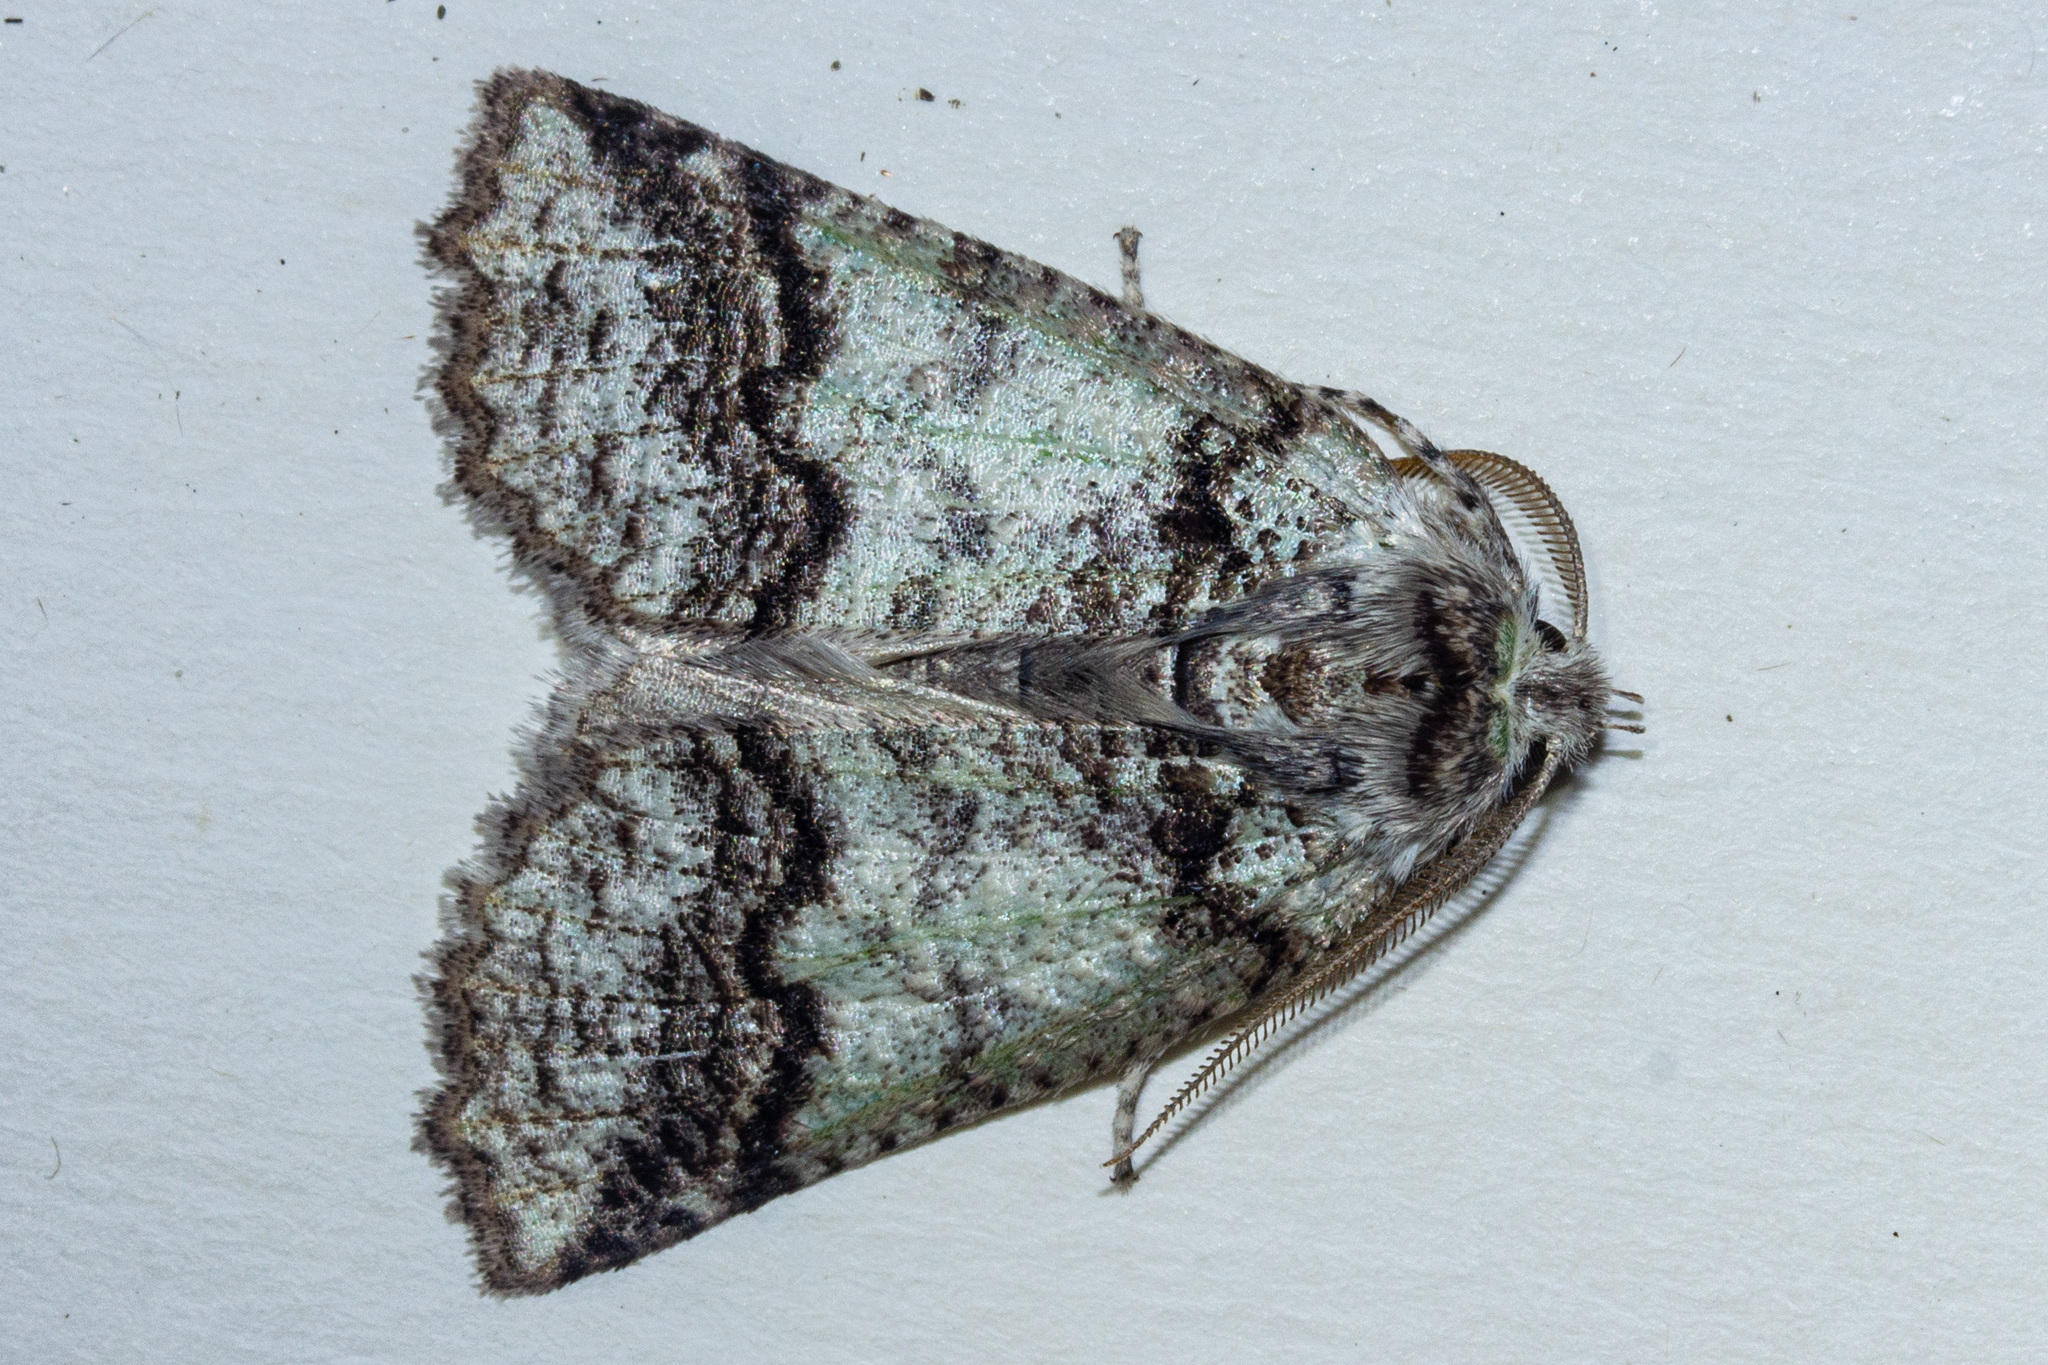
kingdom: Animalia
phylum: Arthropoda
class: Insecta
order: Lepidoptera
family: Geometridae
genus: Declana
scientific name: Declana floccosa
